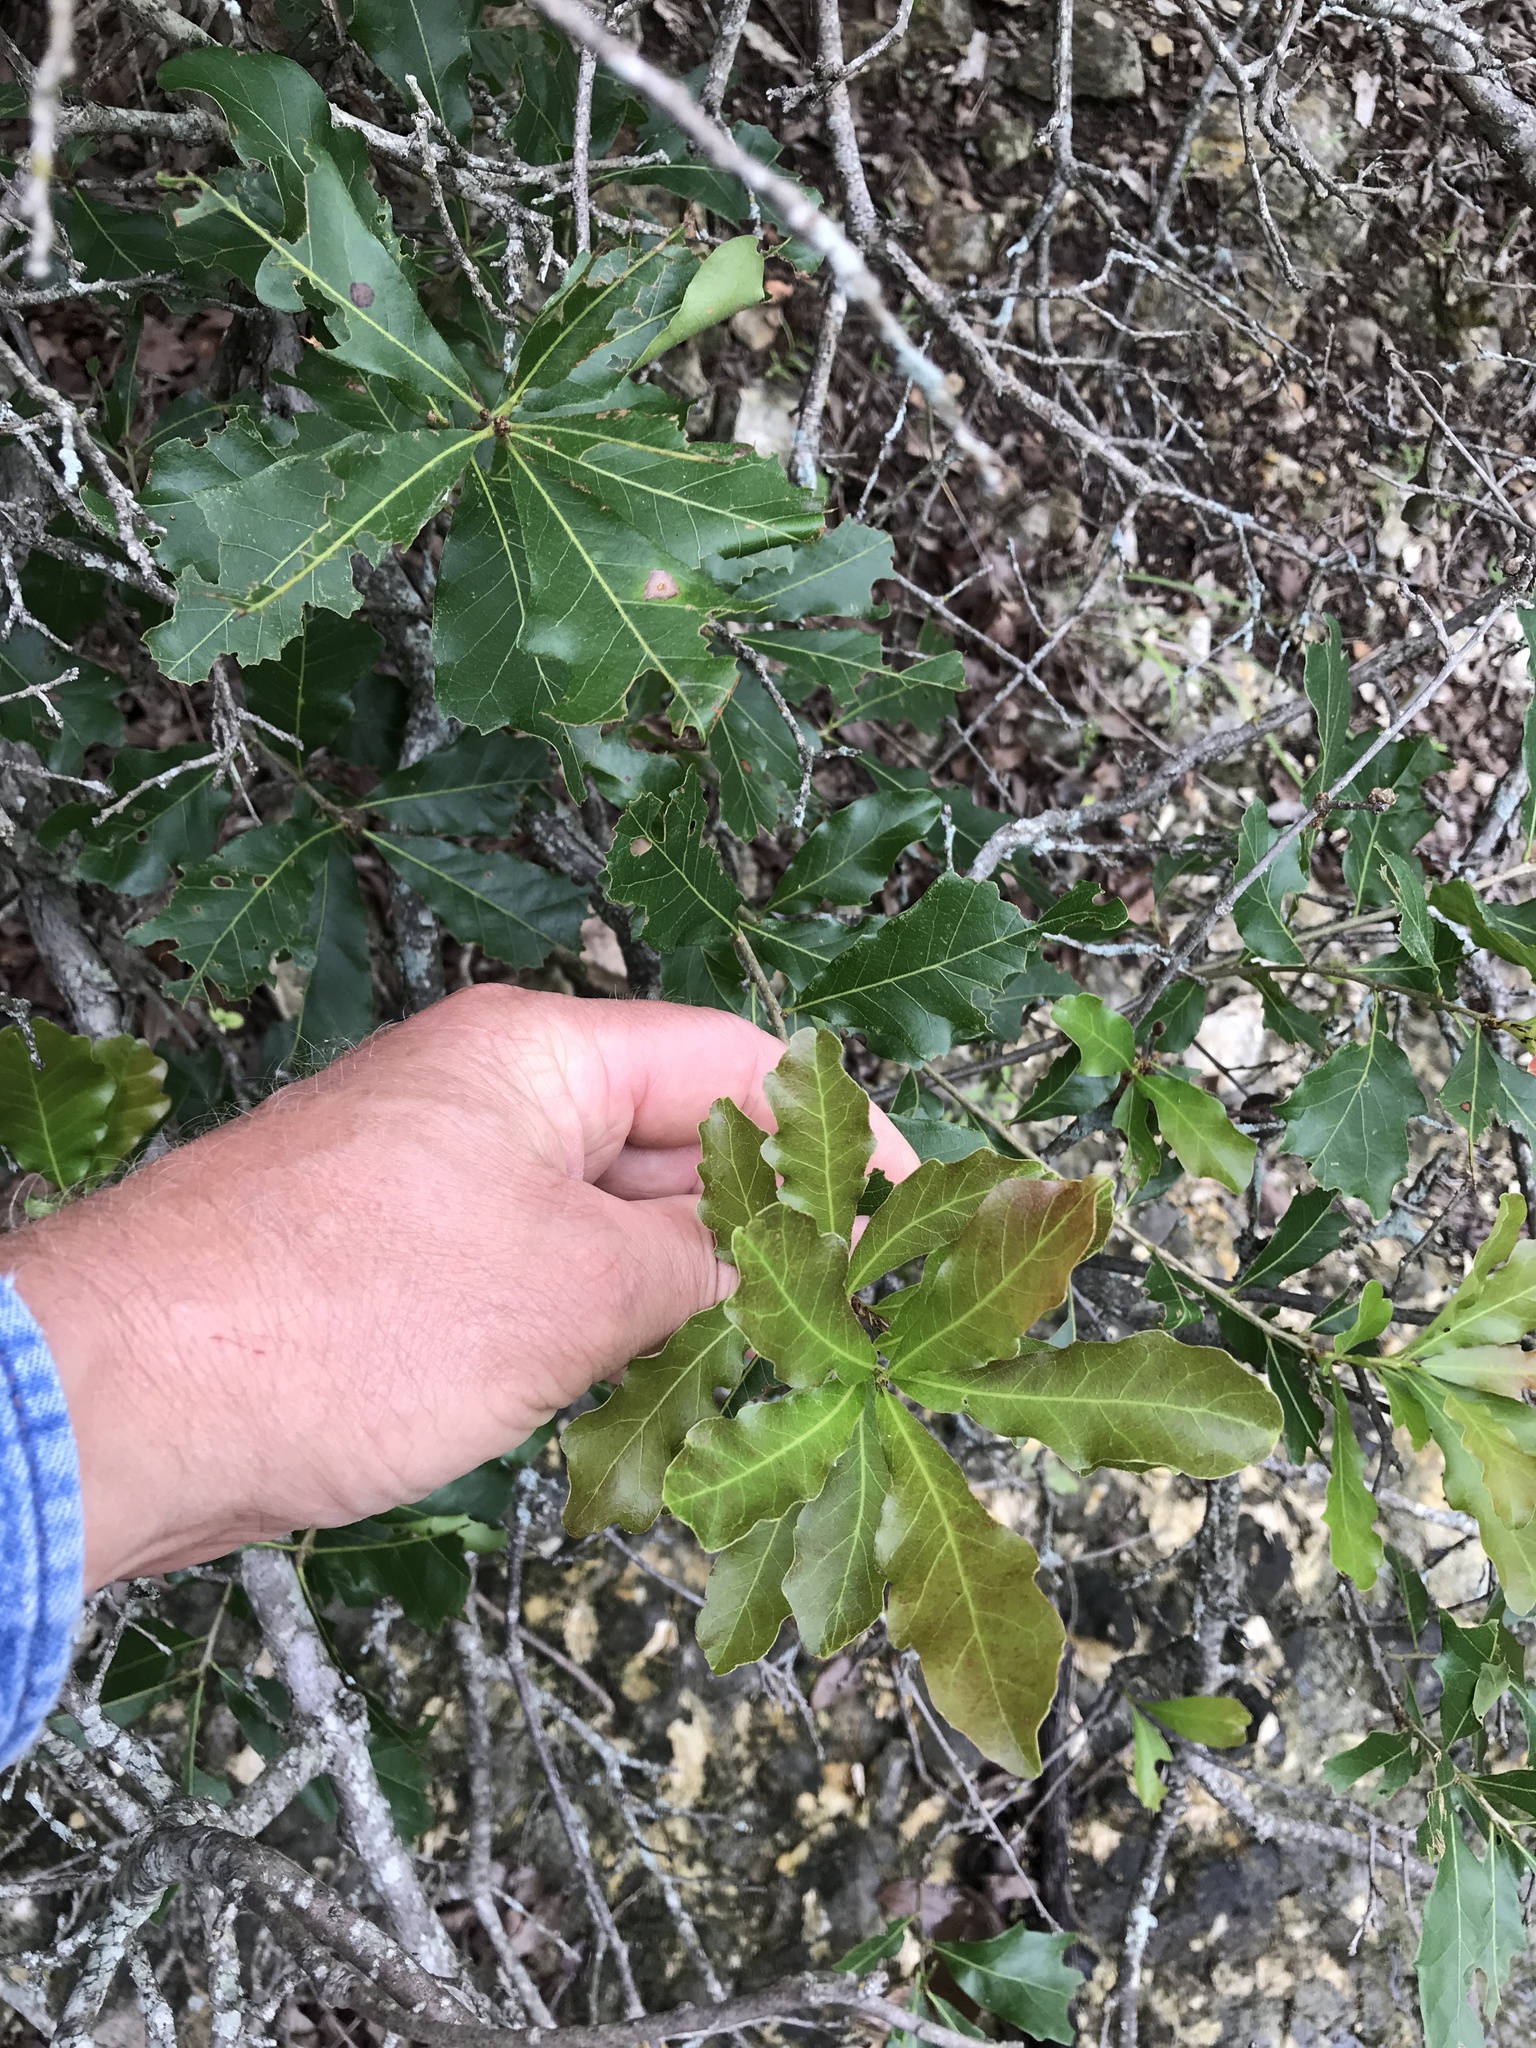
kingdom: Plantae
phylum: Tracheophyta
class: Magnoliopsida
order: Fagales
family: Fagaceae
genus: Quercus
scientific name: Quercus sinuata
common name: Durand oak
